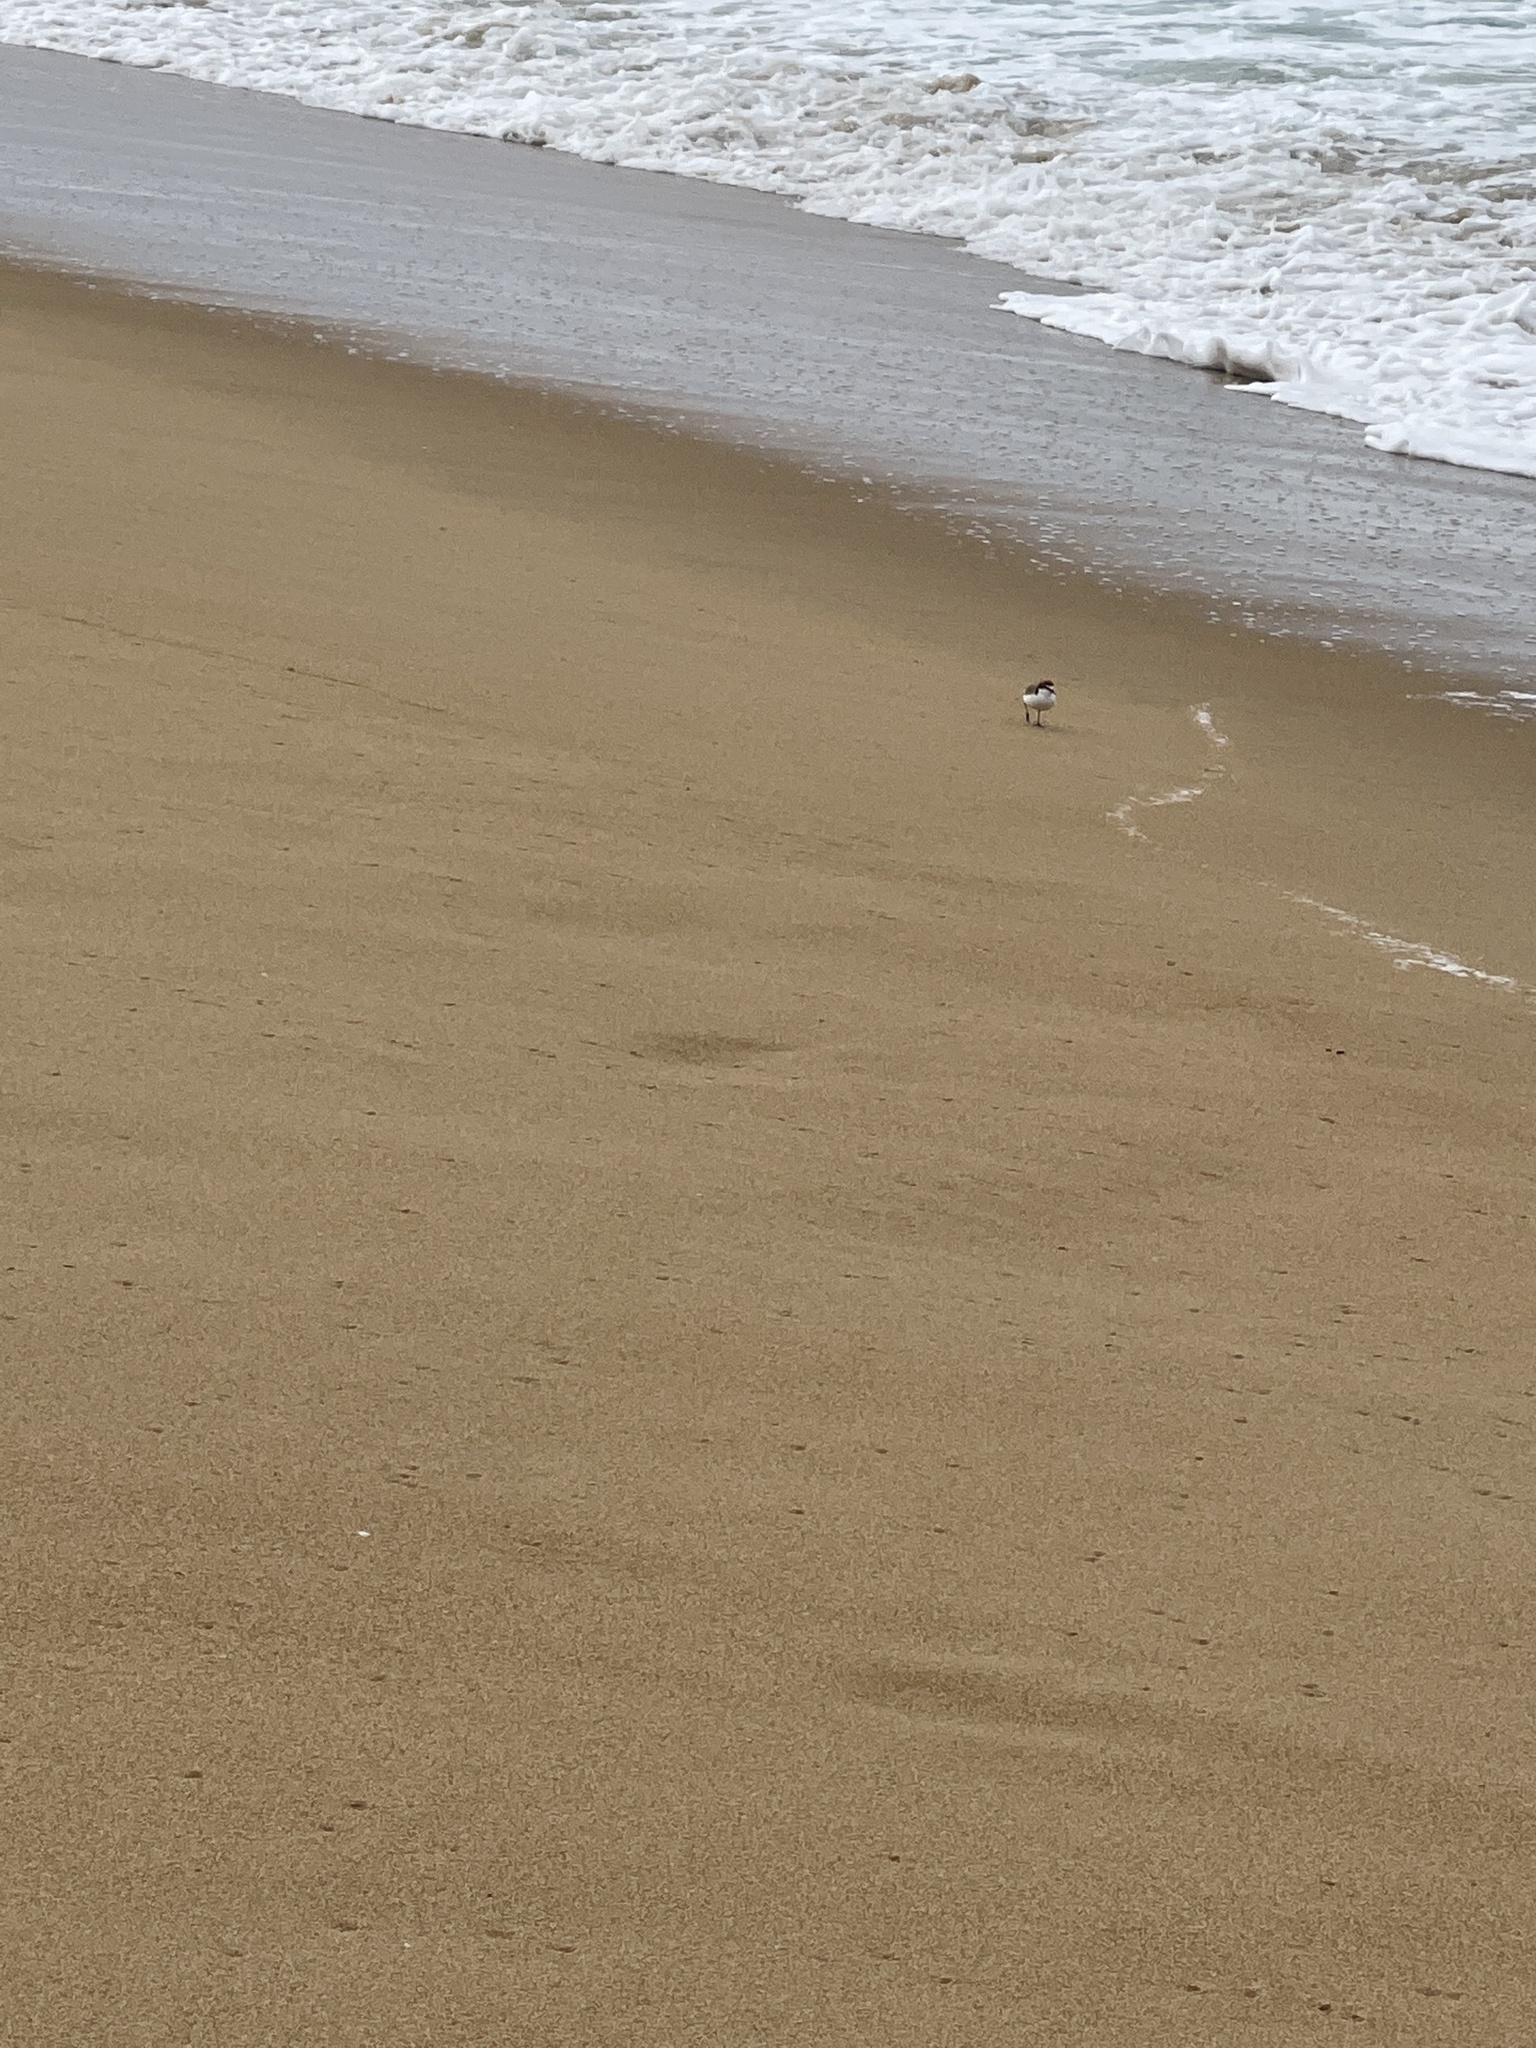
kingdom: Animalia
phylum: Chordata
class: Aves
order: Charadriiformes
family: Charadriidae
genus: Anarhynchus
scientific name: Anarhynchus
